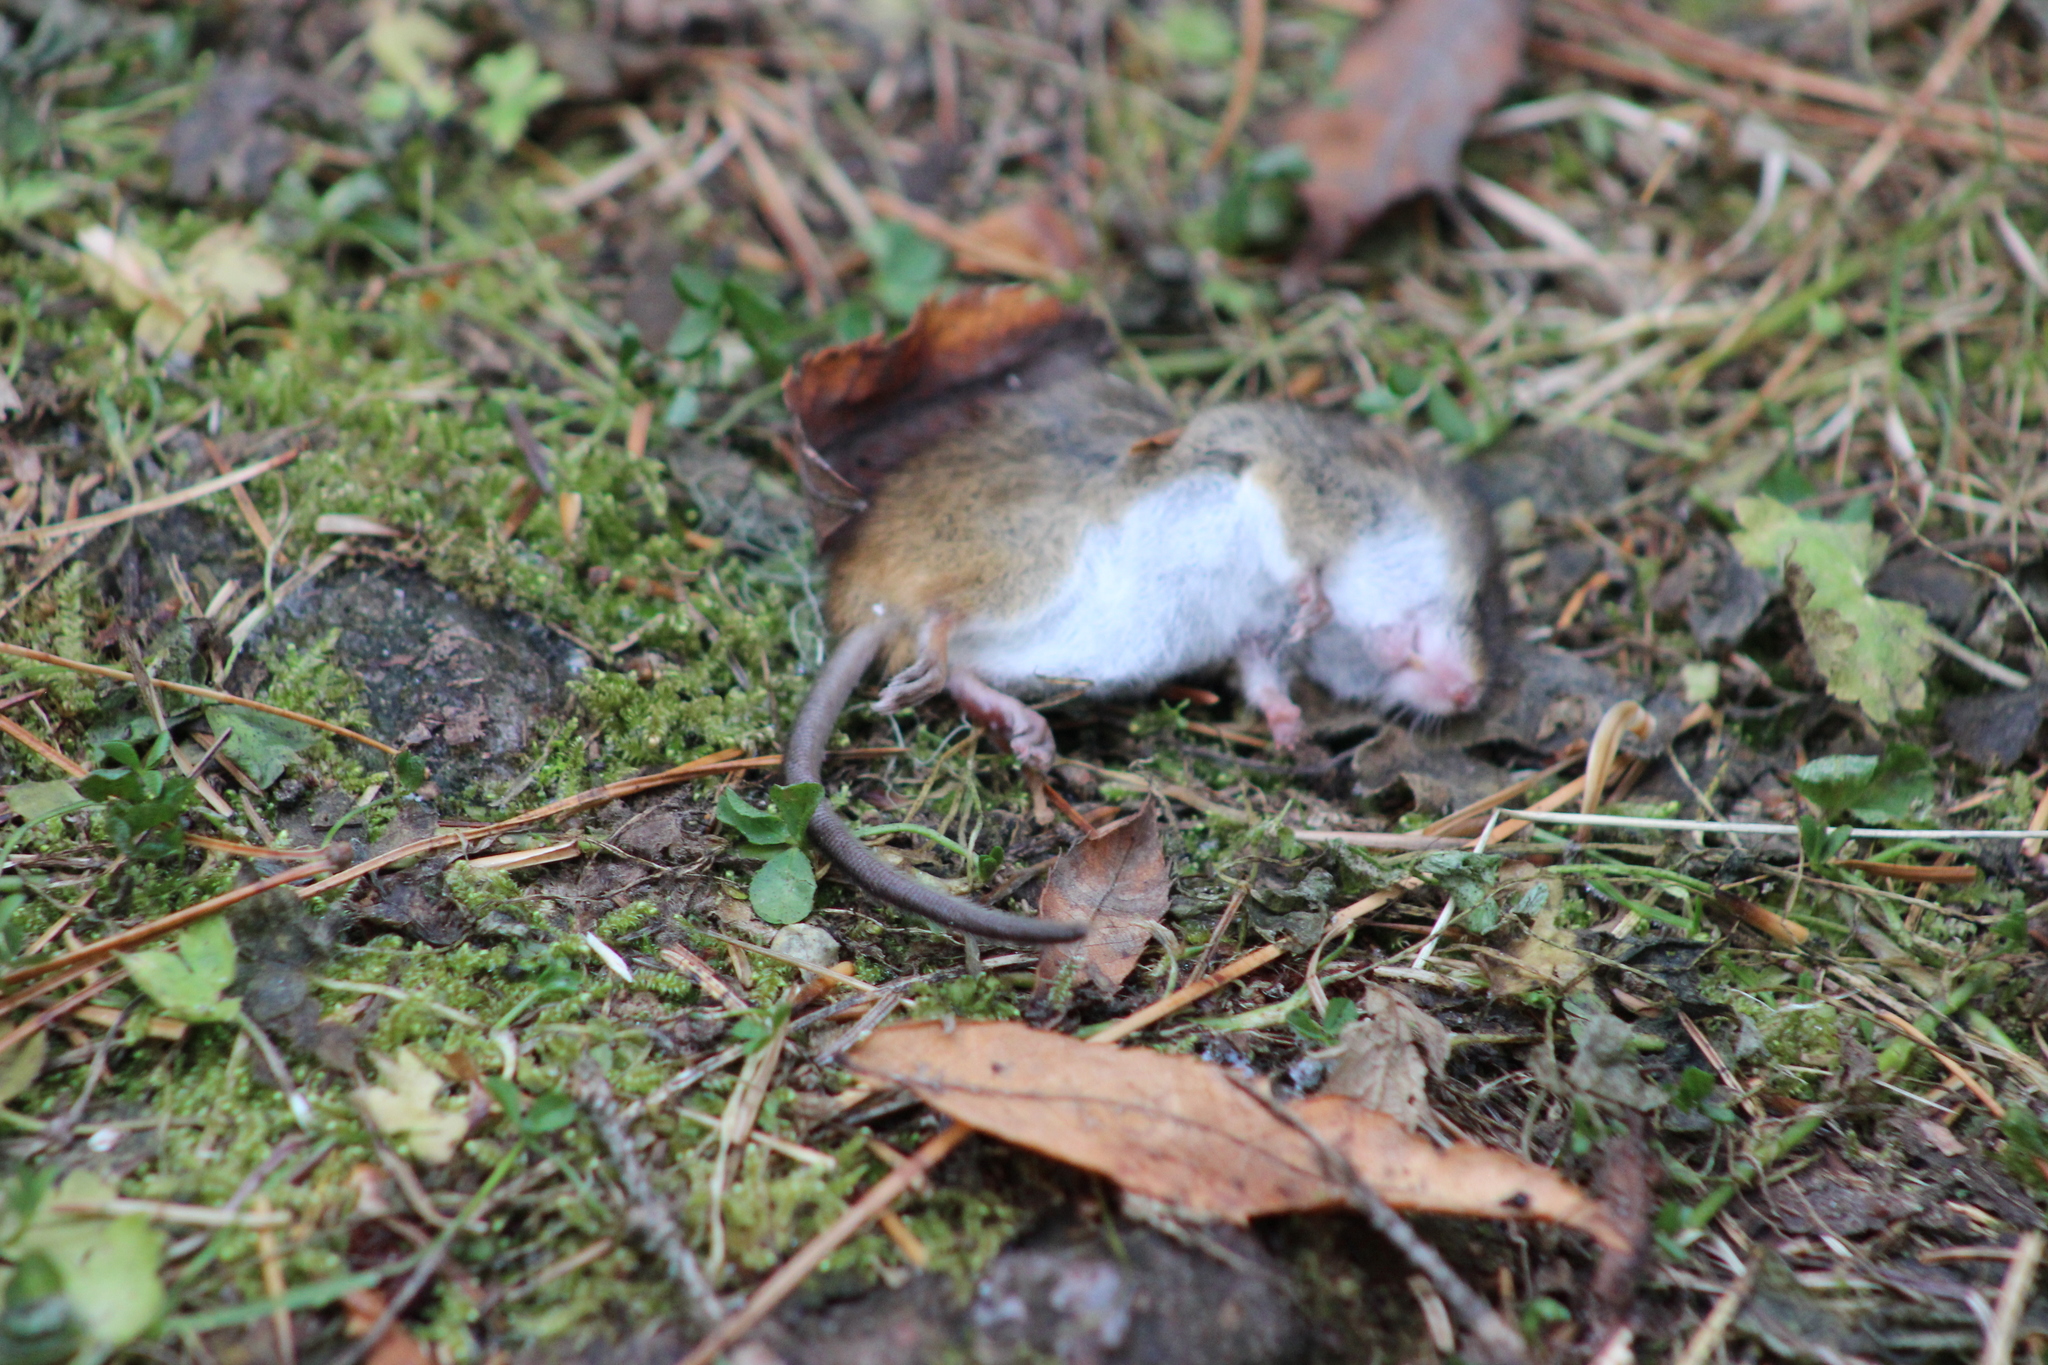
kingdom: Animalia
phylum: Chordata
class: Mammalia
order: Rodentia
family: Muridae
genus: Micromys
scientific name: Micromys minutus
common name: Harvest mouse
